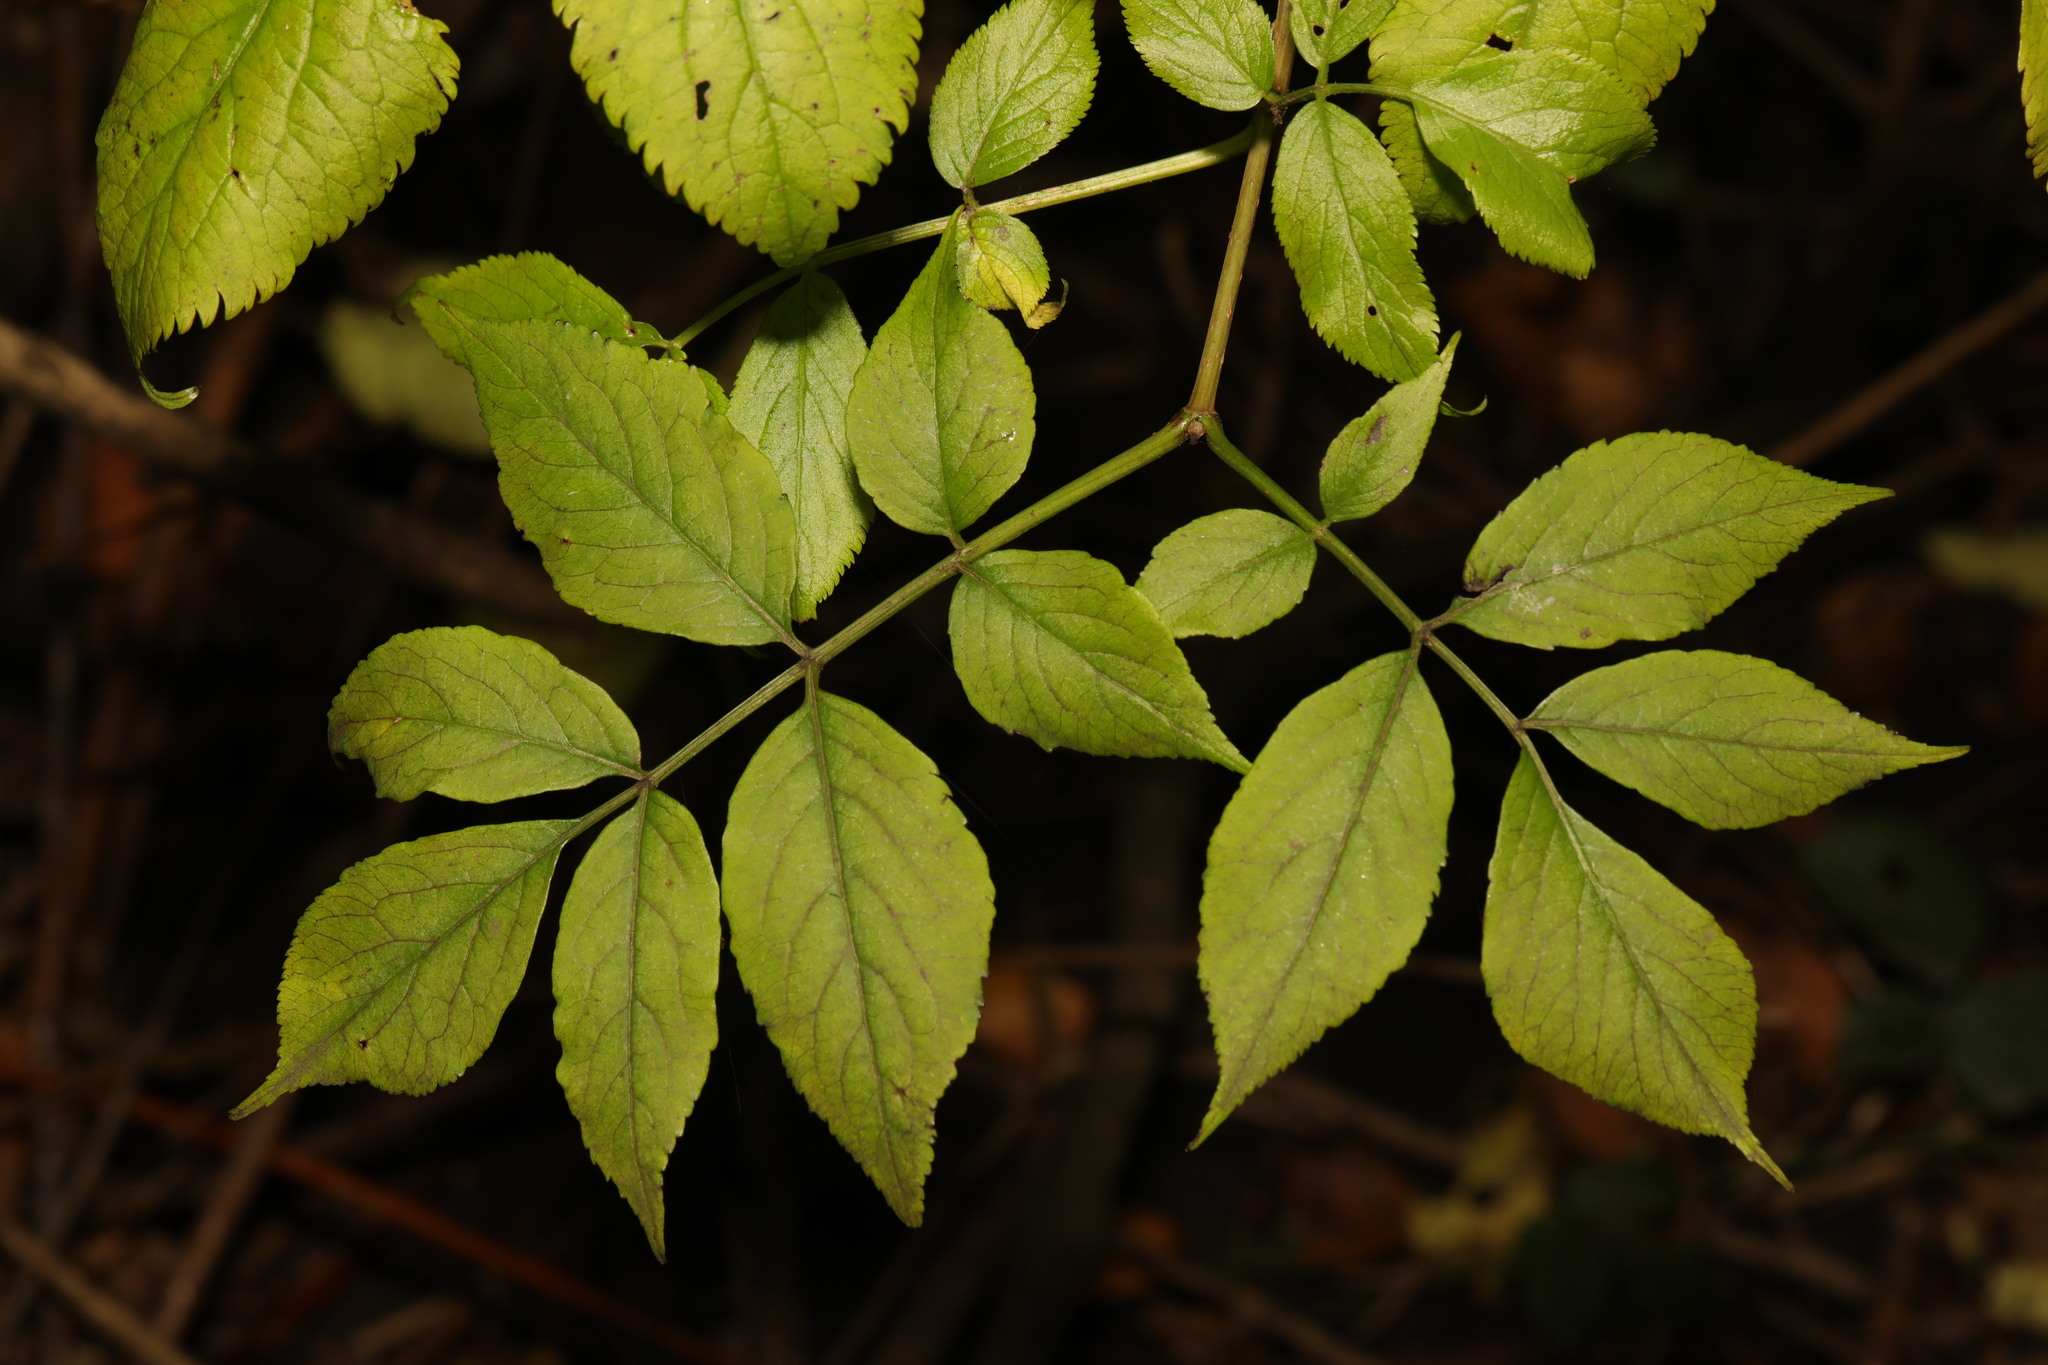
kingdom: Plantae
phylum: Tracheophyta
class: Magnoliopsida
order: Dipsacales
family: Viburnaceae
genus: Sambucus
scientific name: Sambucus nigra
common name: Elder
